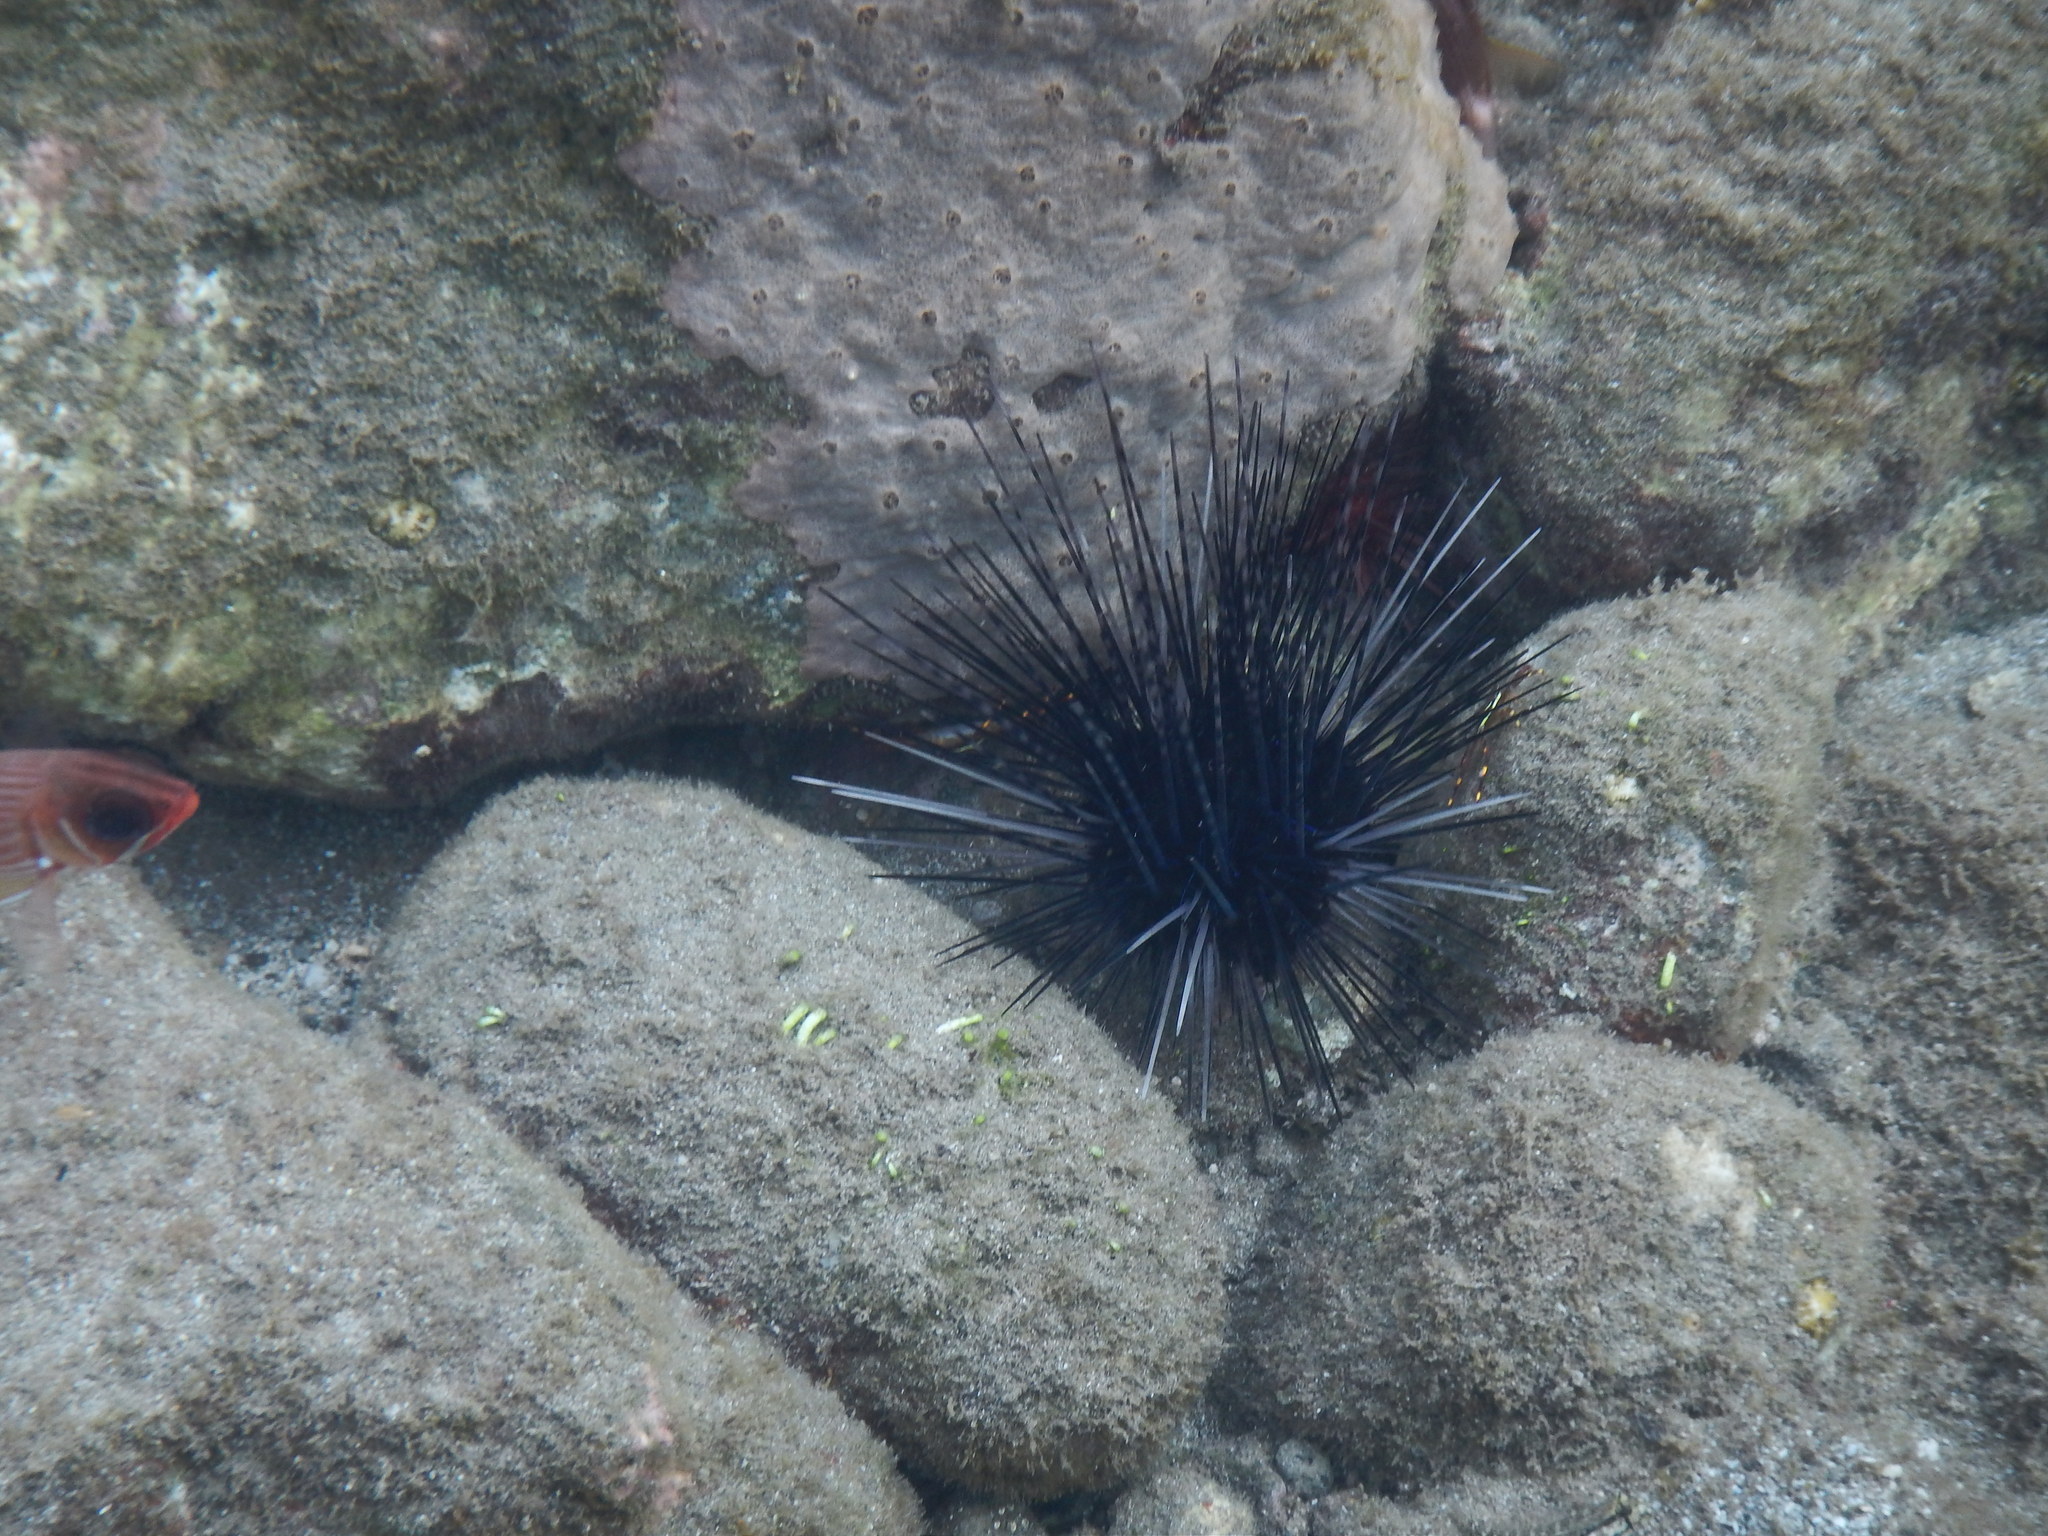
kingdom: Animalia
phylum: Echinodermata
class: Echinoidea
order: Diadematoida
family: Diadematidae
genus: Diadema
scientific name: Diadema antillarum
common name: Spiny urchin
